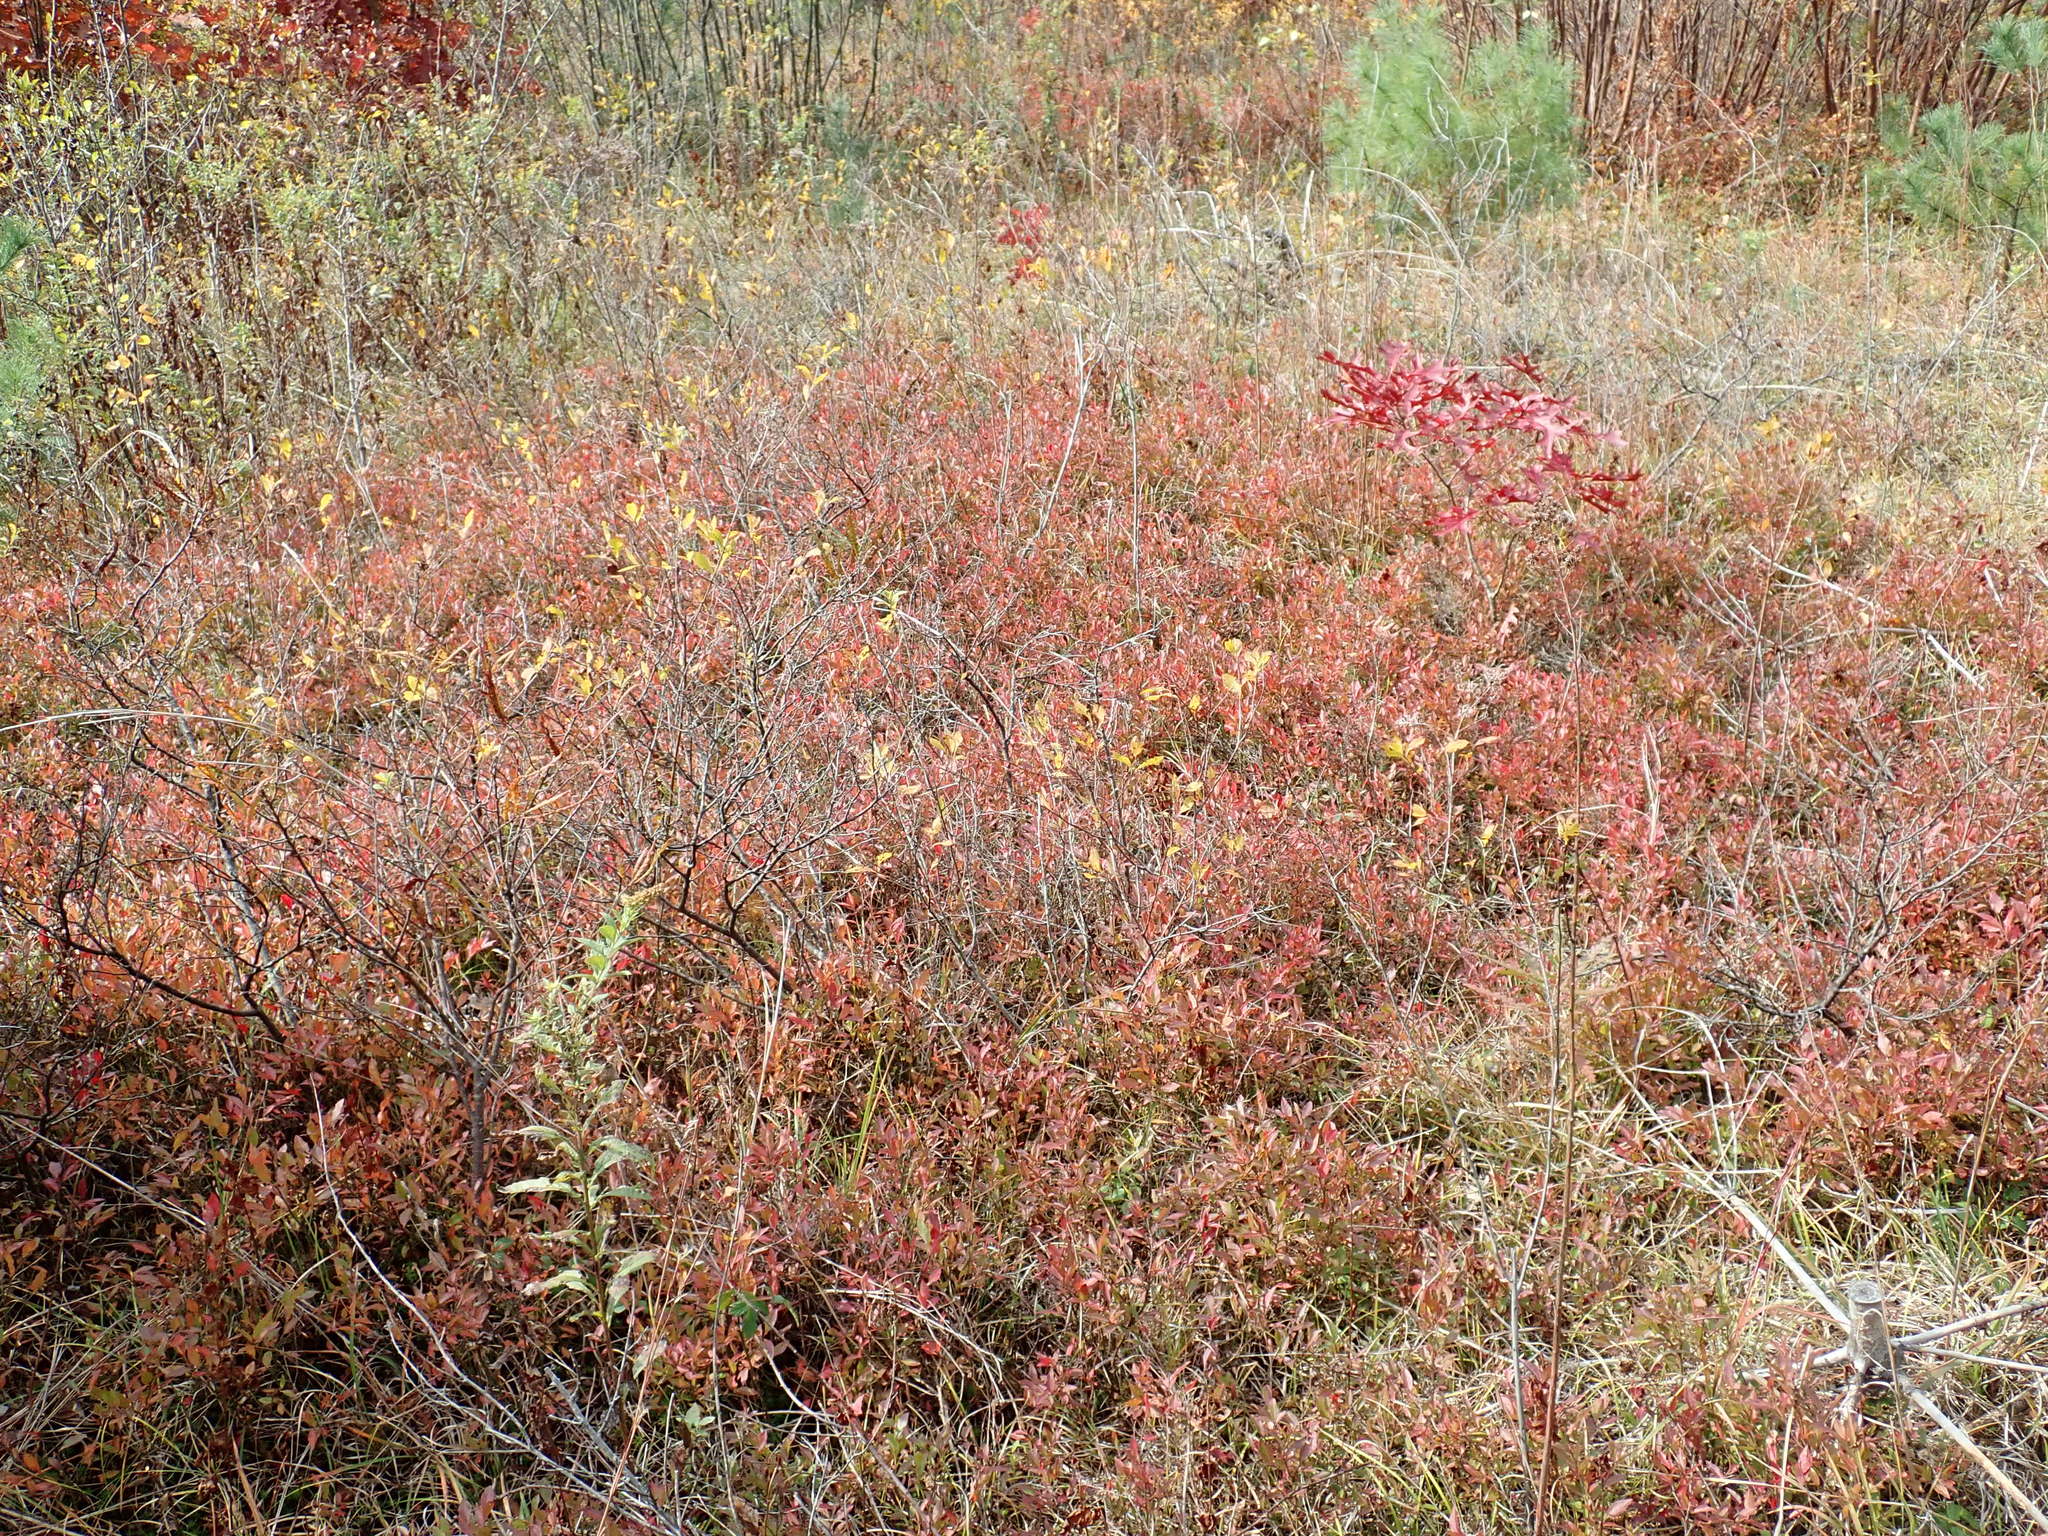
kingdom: Plantae
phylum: Tracheophyta
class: Magnoliopsida
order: Ericales
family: Ericaceae
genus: Vaccinium
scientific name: Vaccinium angustifolium
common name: Early lowbush blueberry
